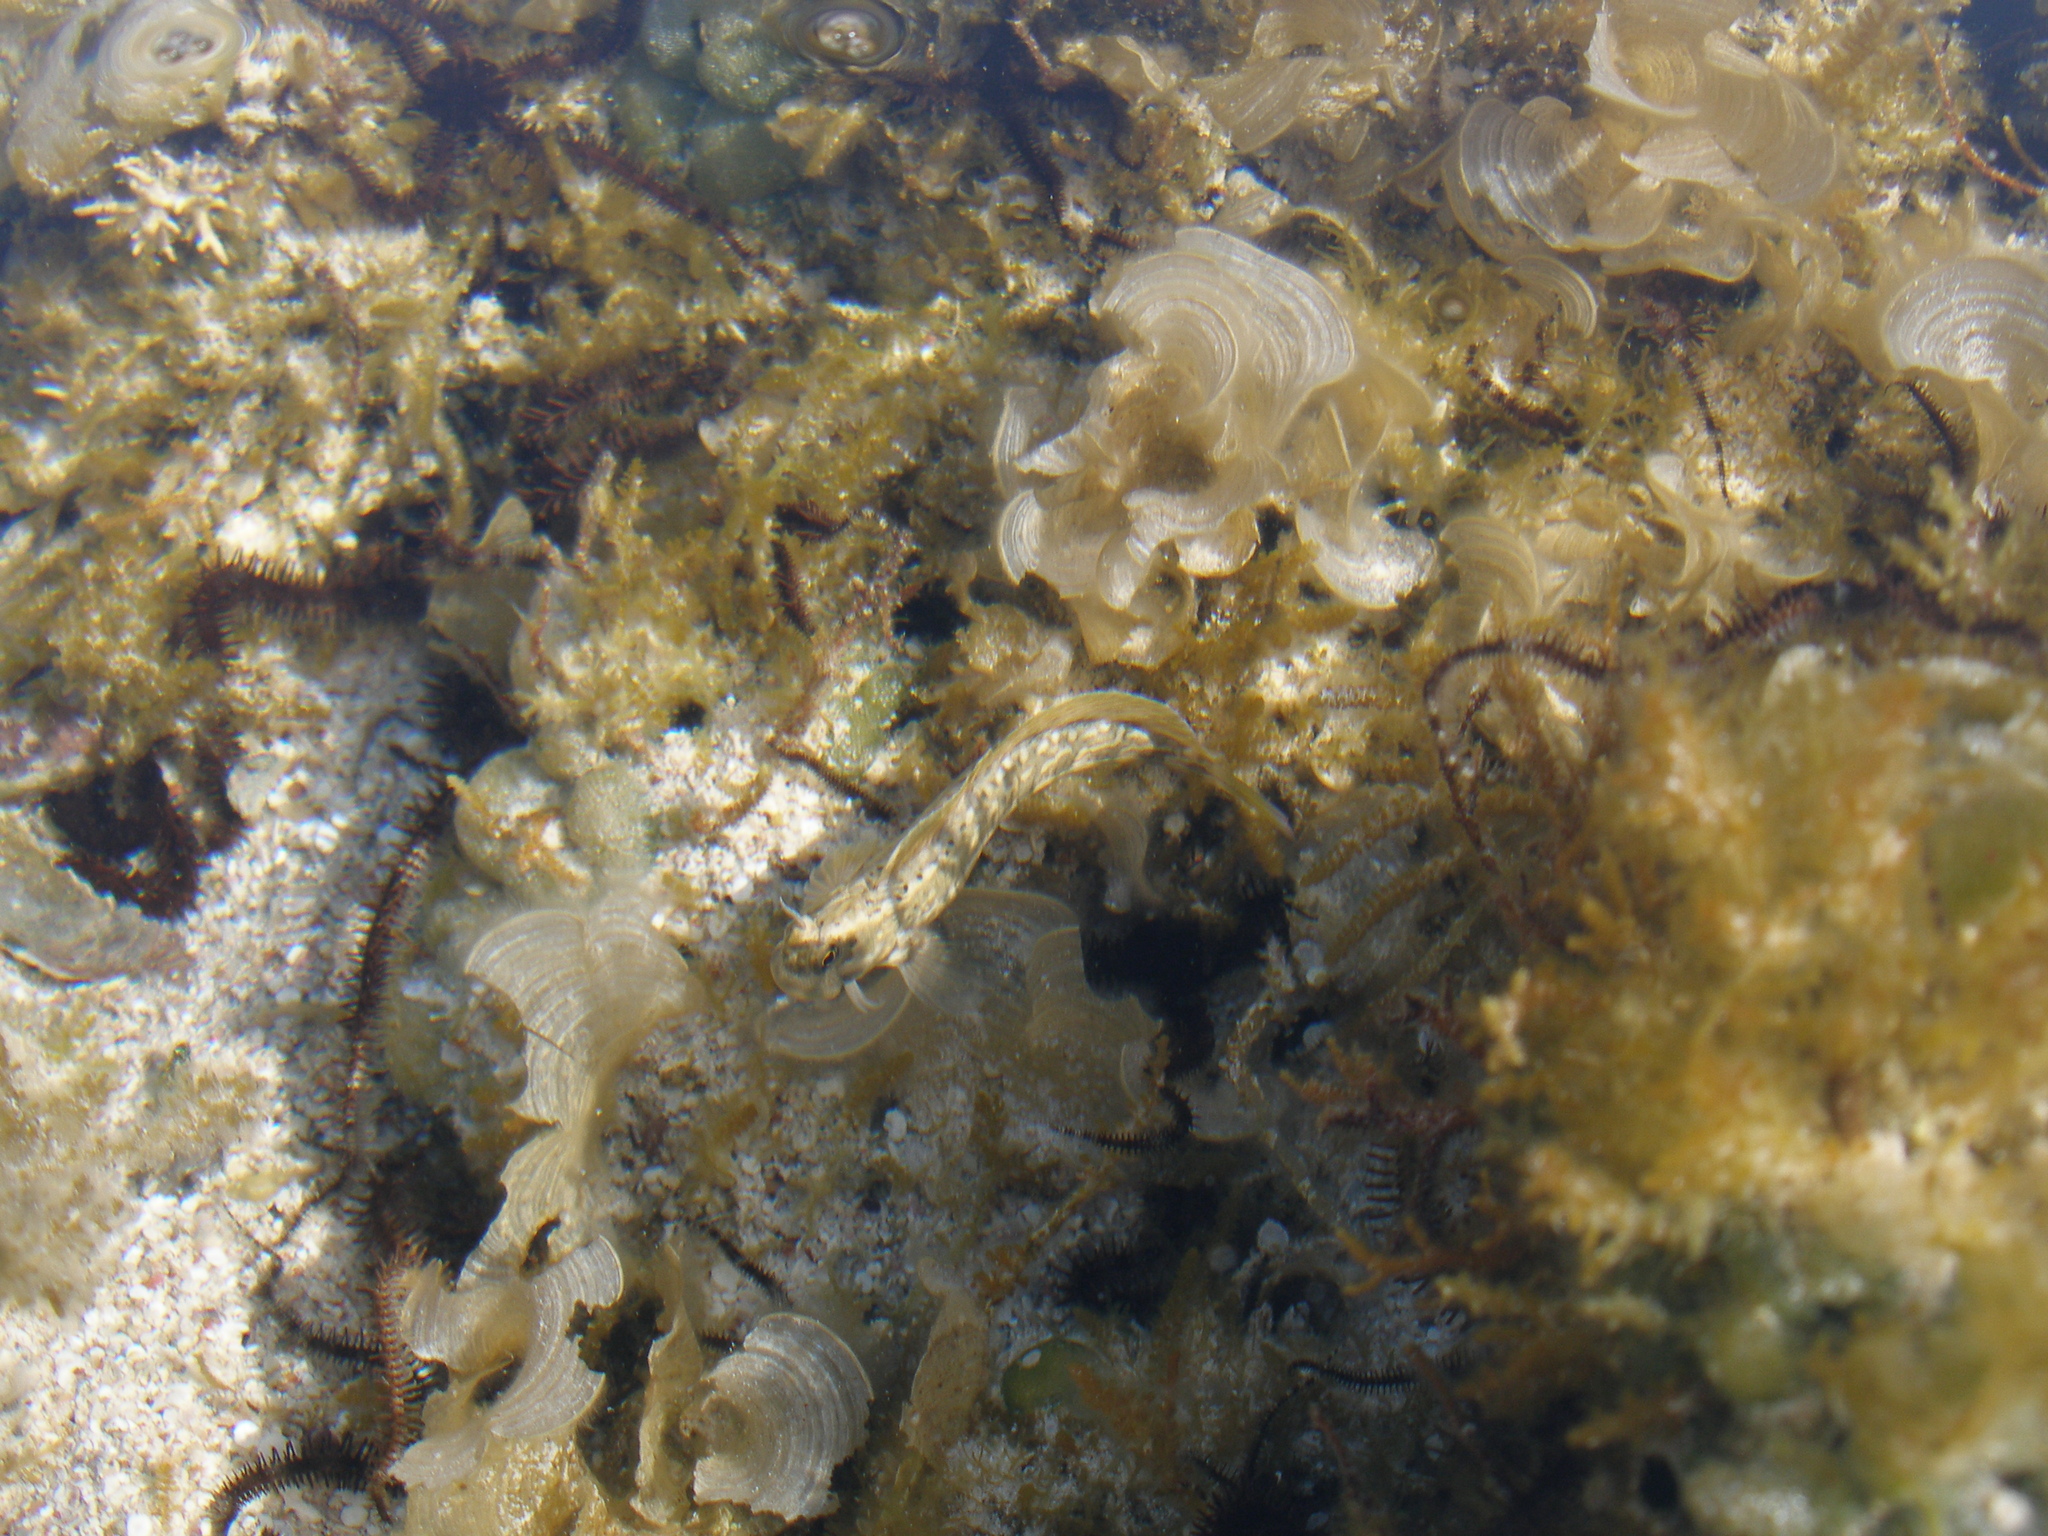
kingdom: Animalia
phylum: Chordata
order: Perciformes
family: Blenniidae
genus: Istiblennius
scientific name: Istiblennius rivulatus
